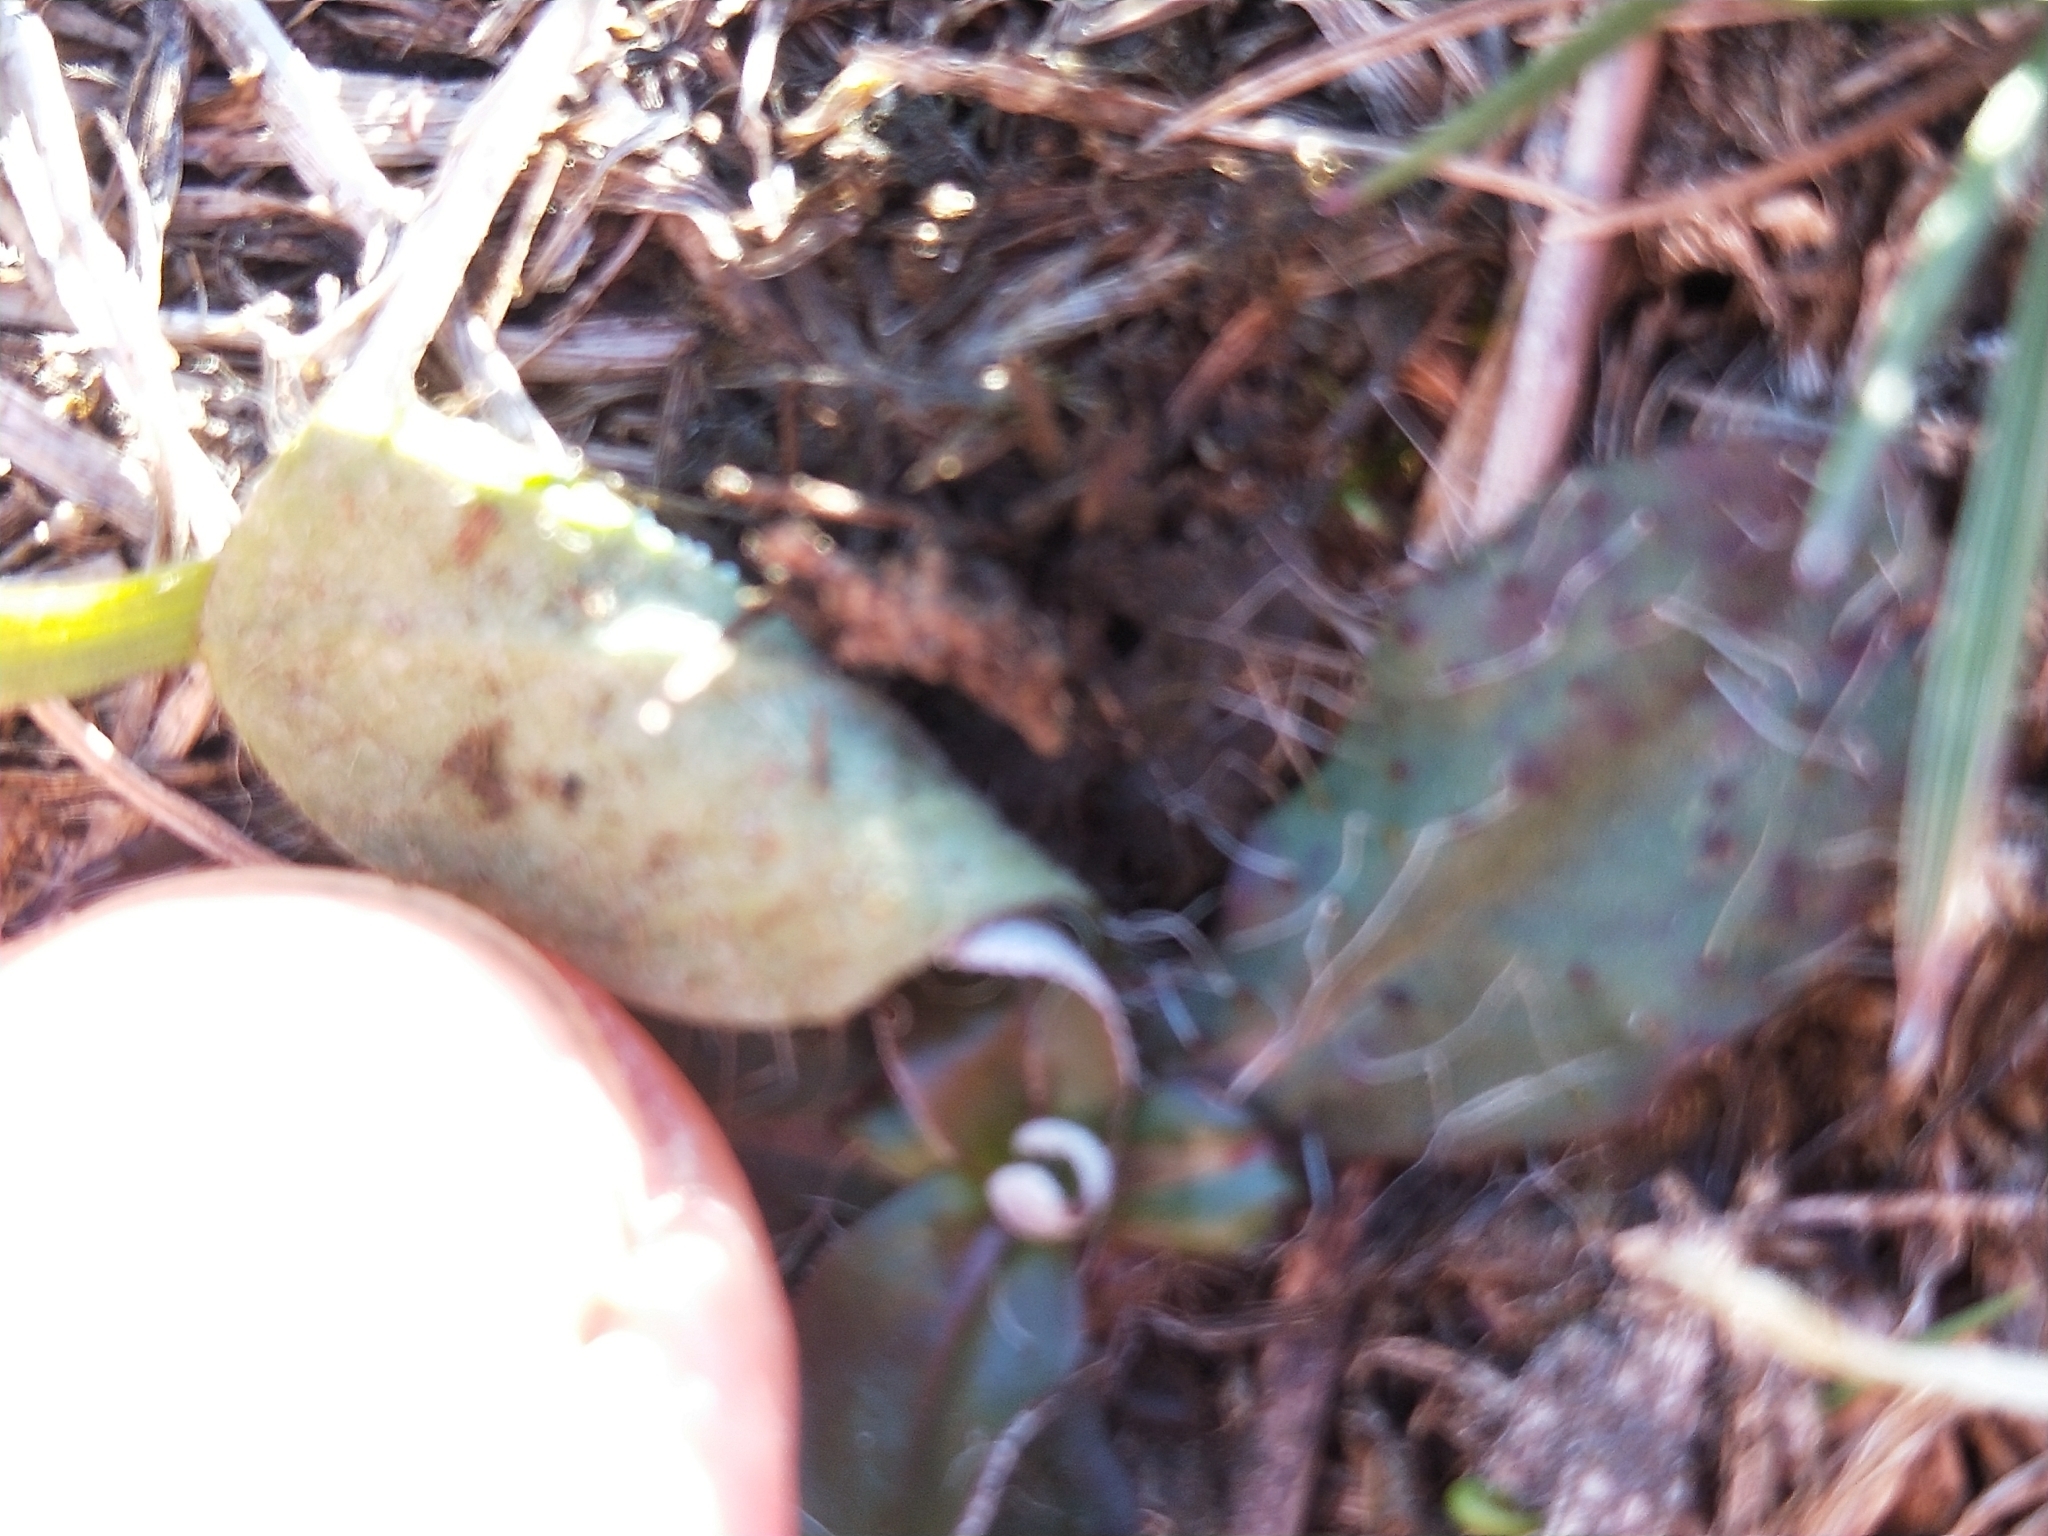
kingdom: Plantae
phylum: Tracheophyta
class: Magnoliopsida
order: Asterales
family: Asteraceae
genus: Pilosella
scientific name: Pilosella officinarum
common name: Mouse-ear hawkweed
